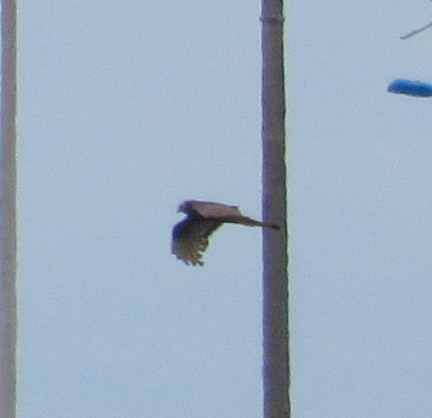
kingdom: Animalia
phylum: Chordata
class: Aves
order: Accipitriformes
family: Accipitridae
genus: Circus
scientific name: Circus buffoni
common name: Long-winged harrier
